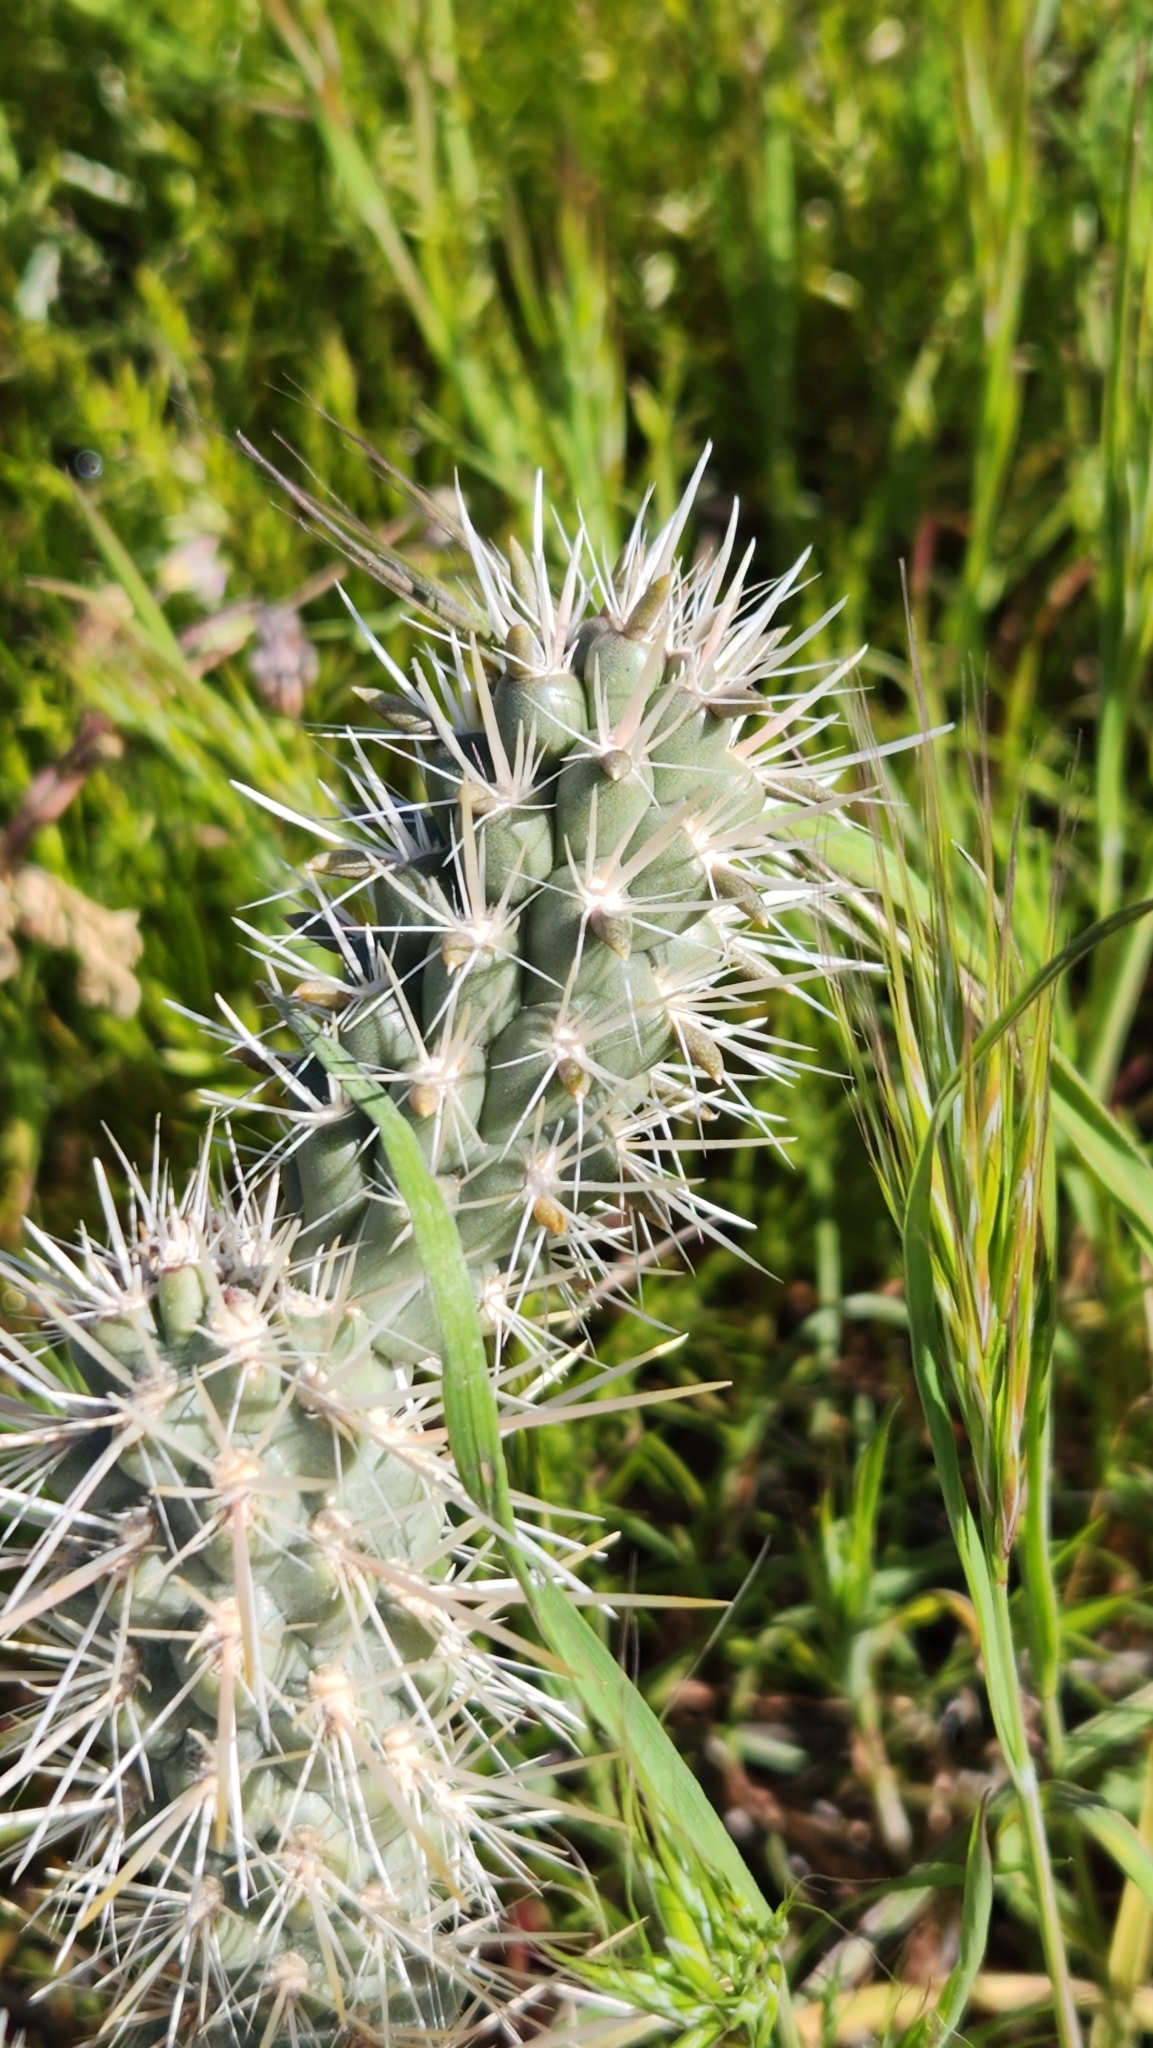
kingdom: Plantae
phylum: Tracheophyta
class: Magnoliopsida
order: Caryophyllales
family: Cactaceae
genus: Cylindropuntia
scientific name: Cylindropuntia echinocarpa
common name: Ground cholla
